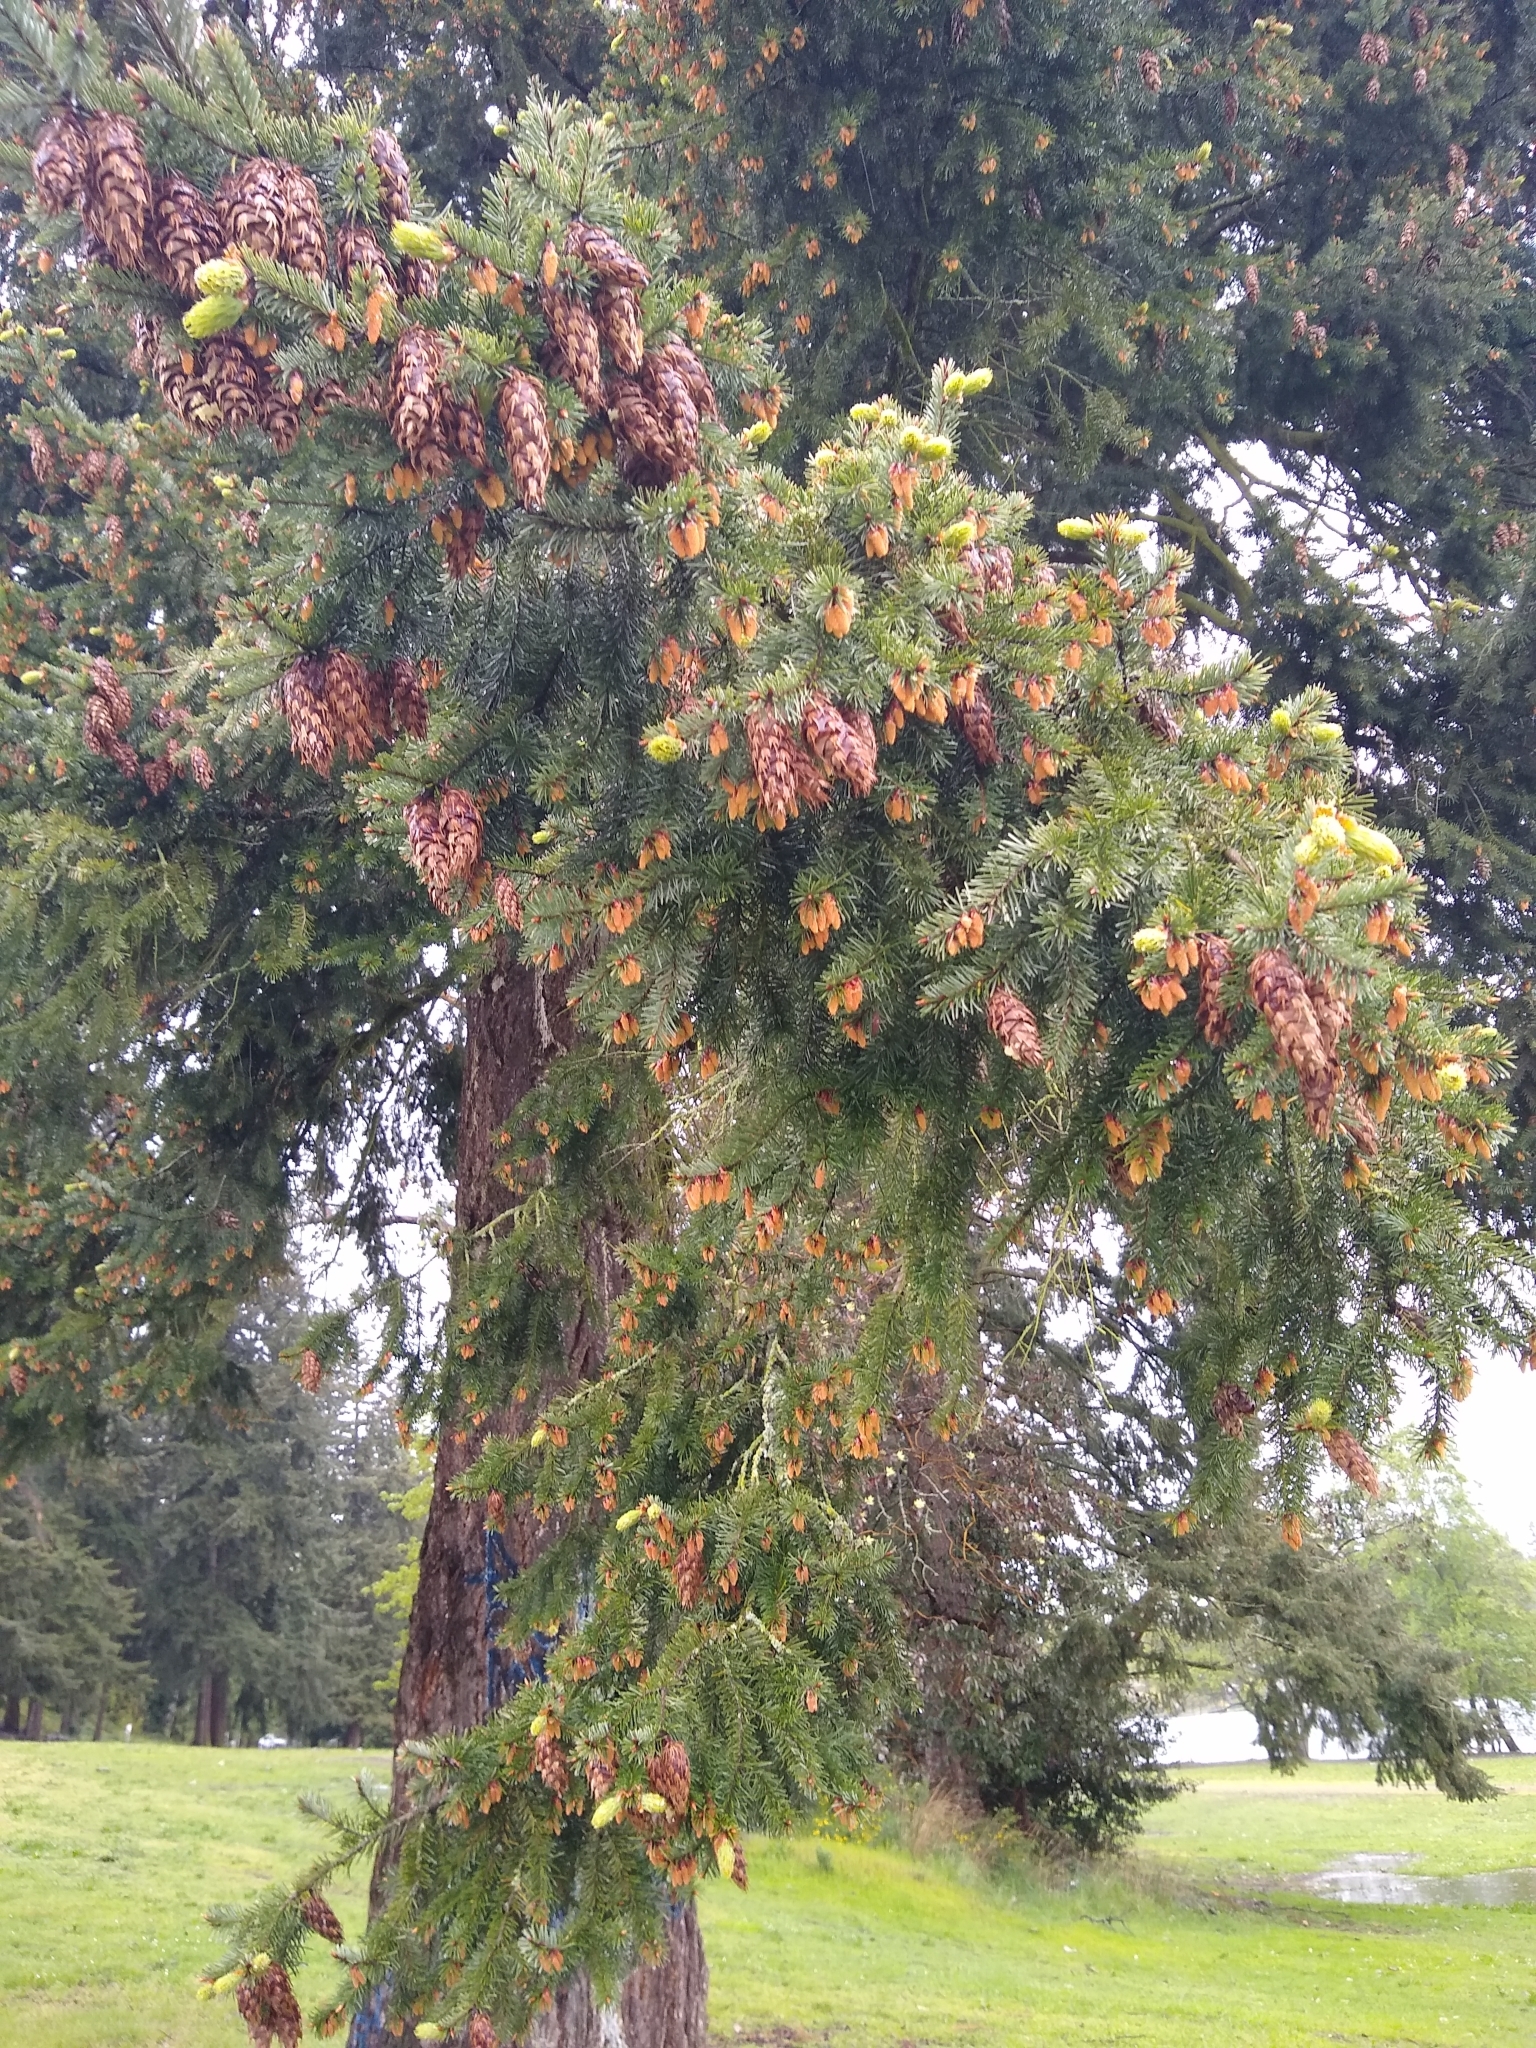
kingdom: Plantae
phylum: Tracheophyta
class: Pinopsida
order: Pinales
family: Pinaceae
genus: Pseudotsuga
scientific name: Pseudotsuga menziesii
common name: Douglas fir
